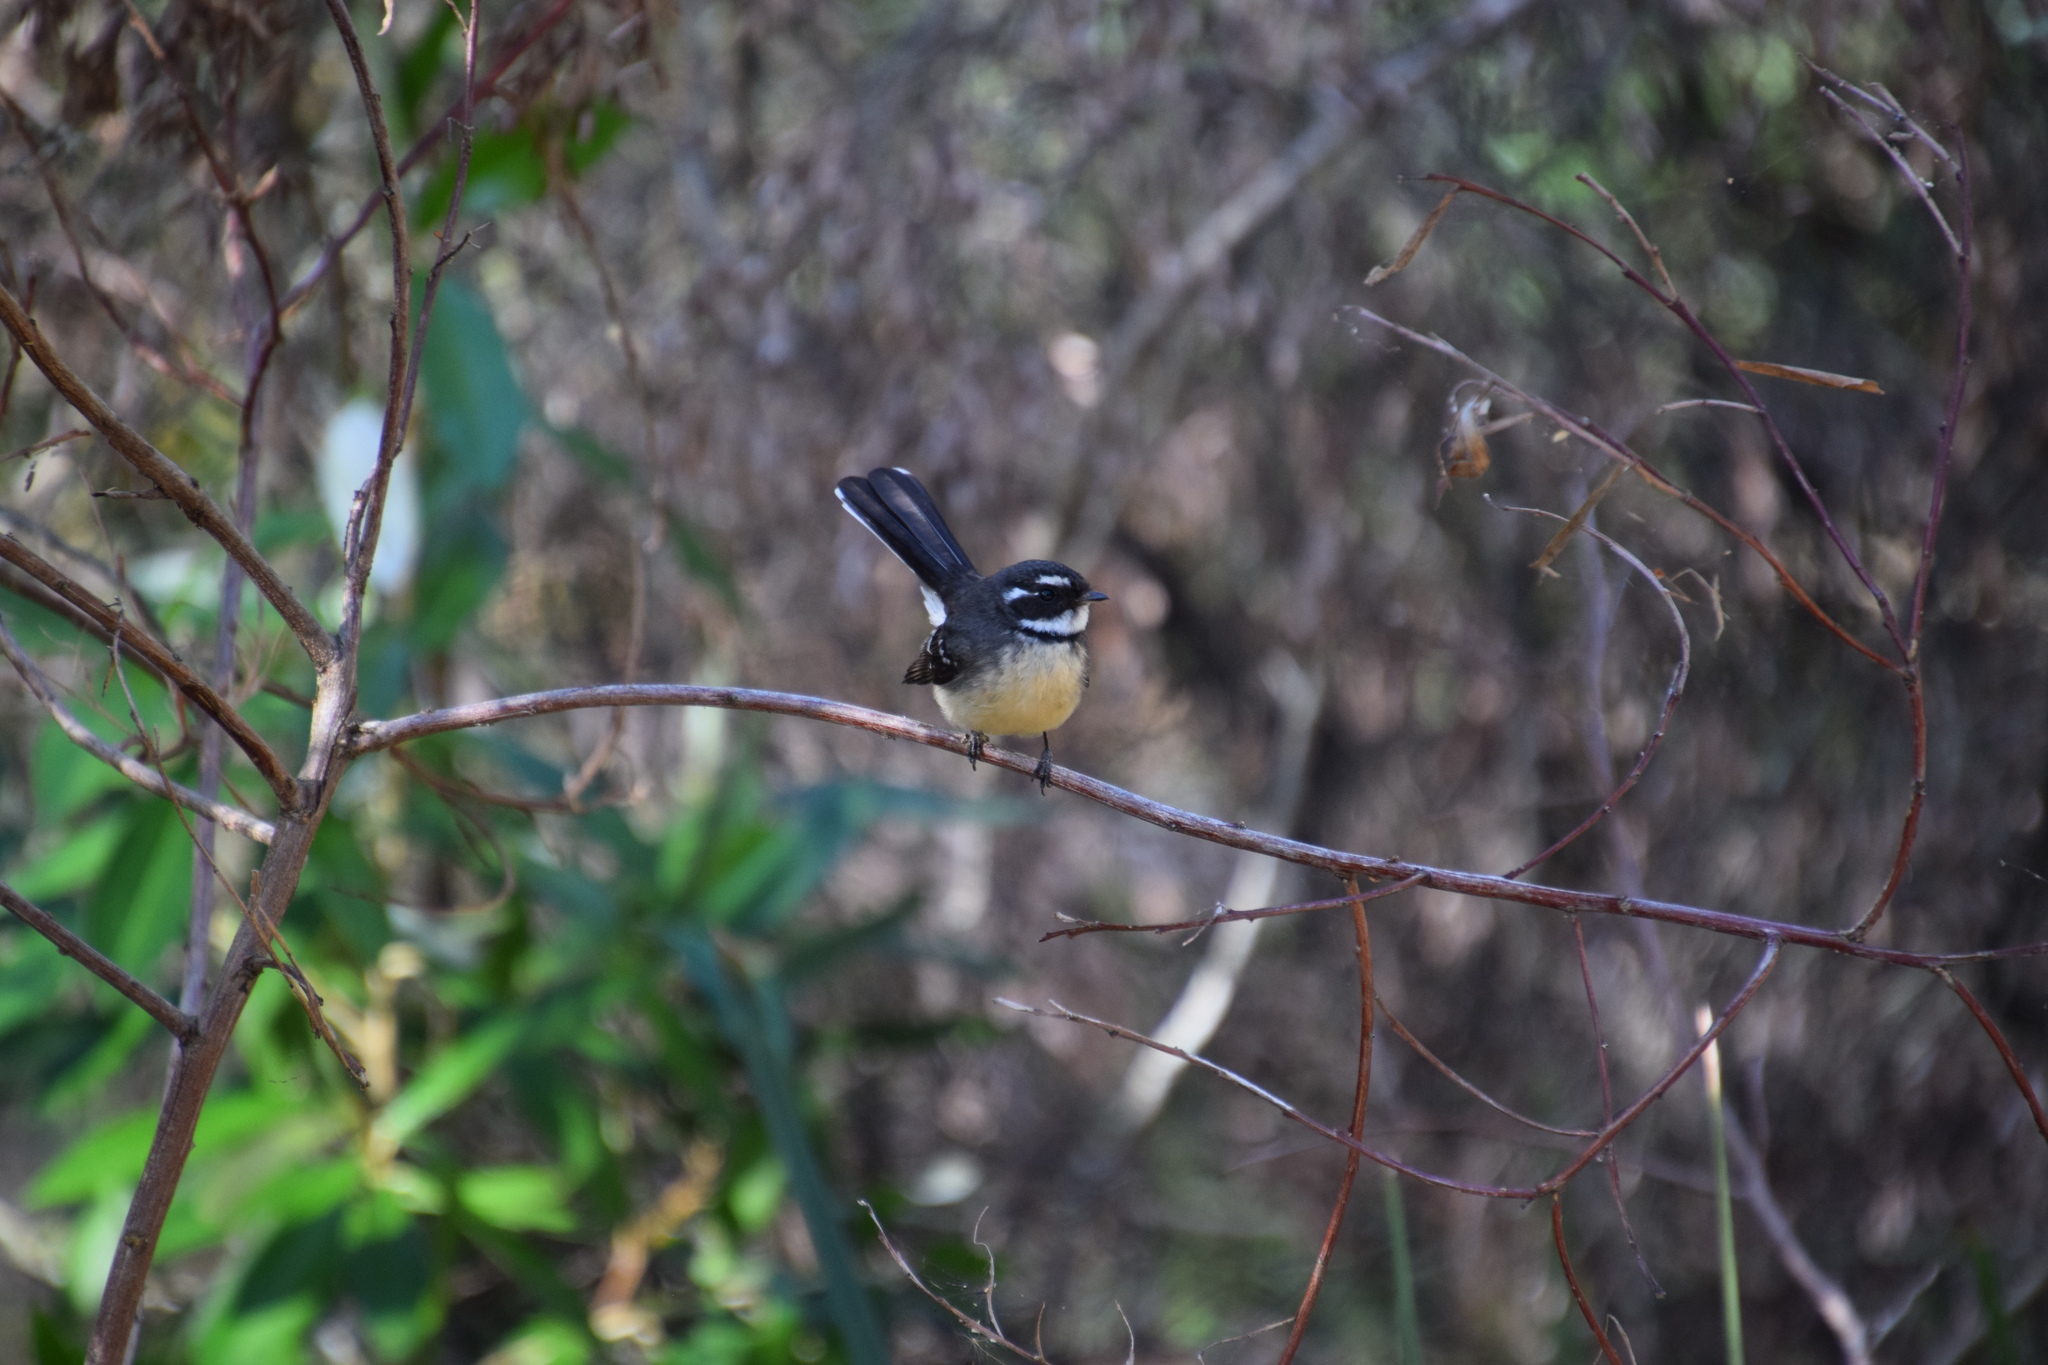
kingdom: Animalia
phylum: Chordata
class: Aves
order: Passeriformes
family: Rhipiduridae
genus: Rhipidura
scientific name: Rhipidura albiscapa
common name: Grey fantail
